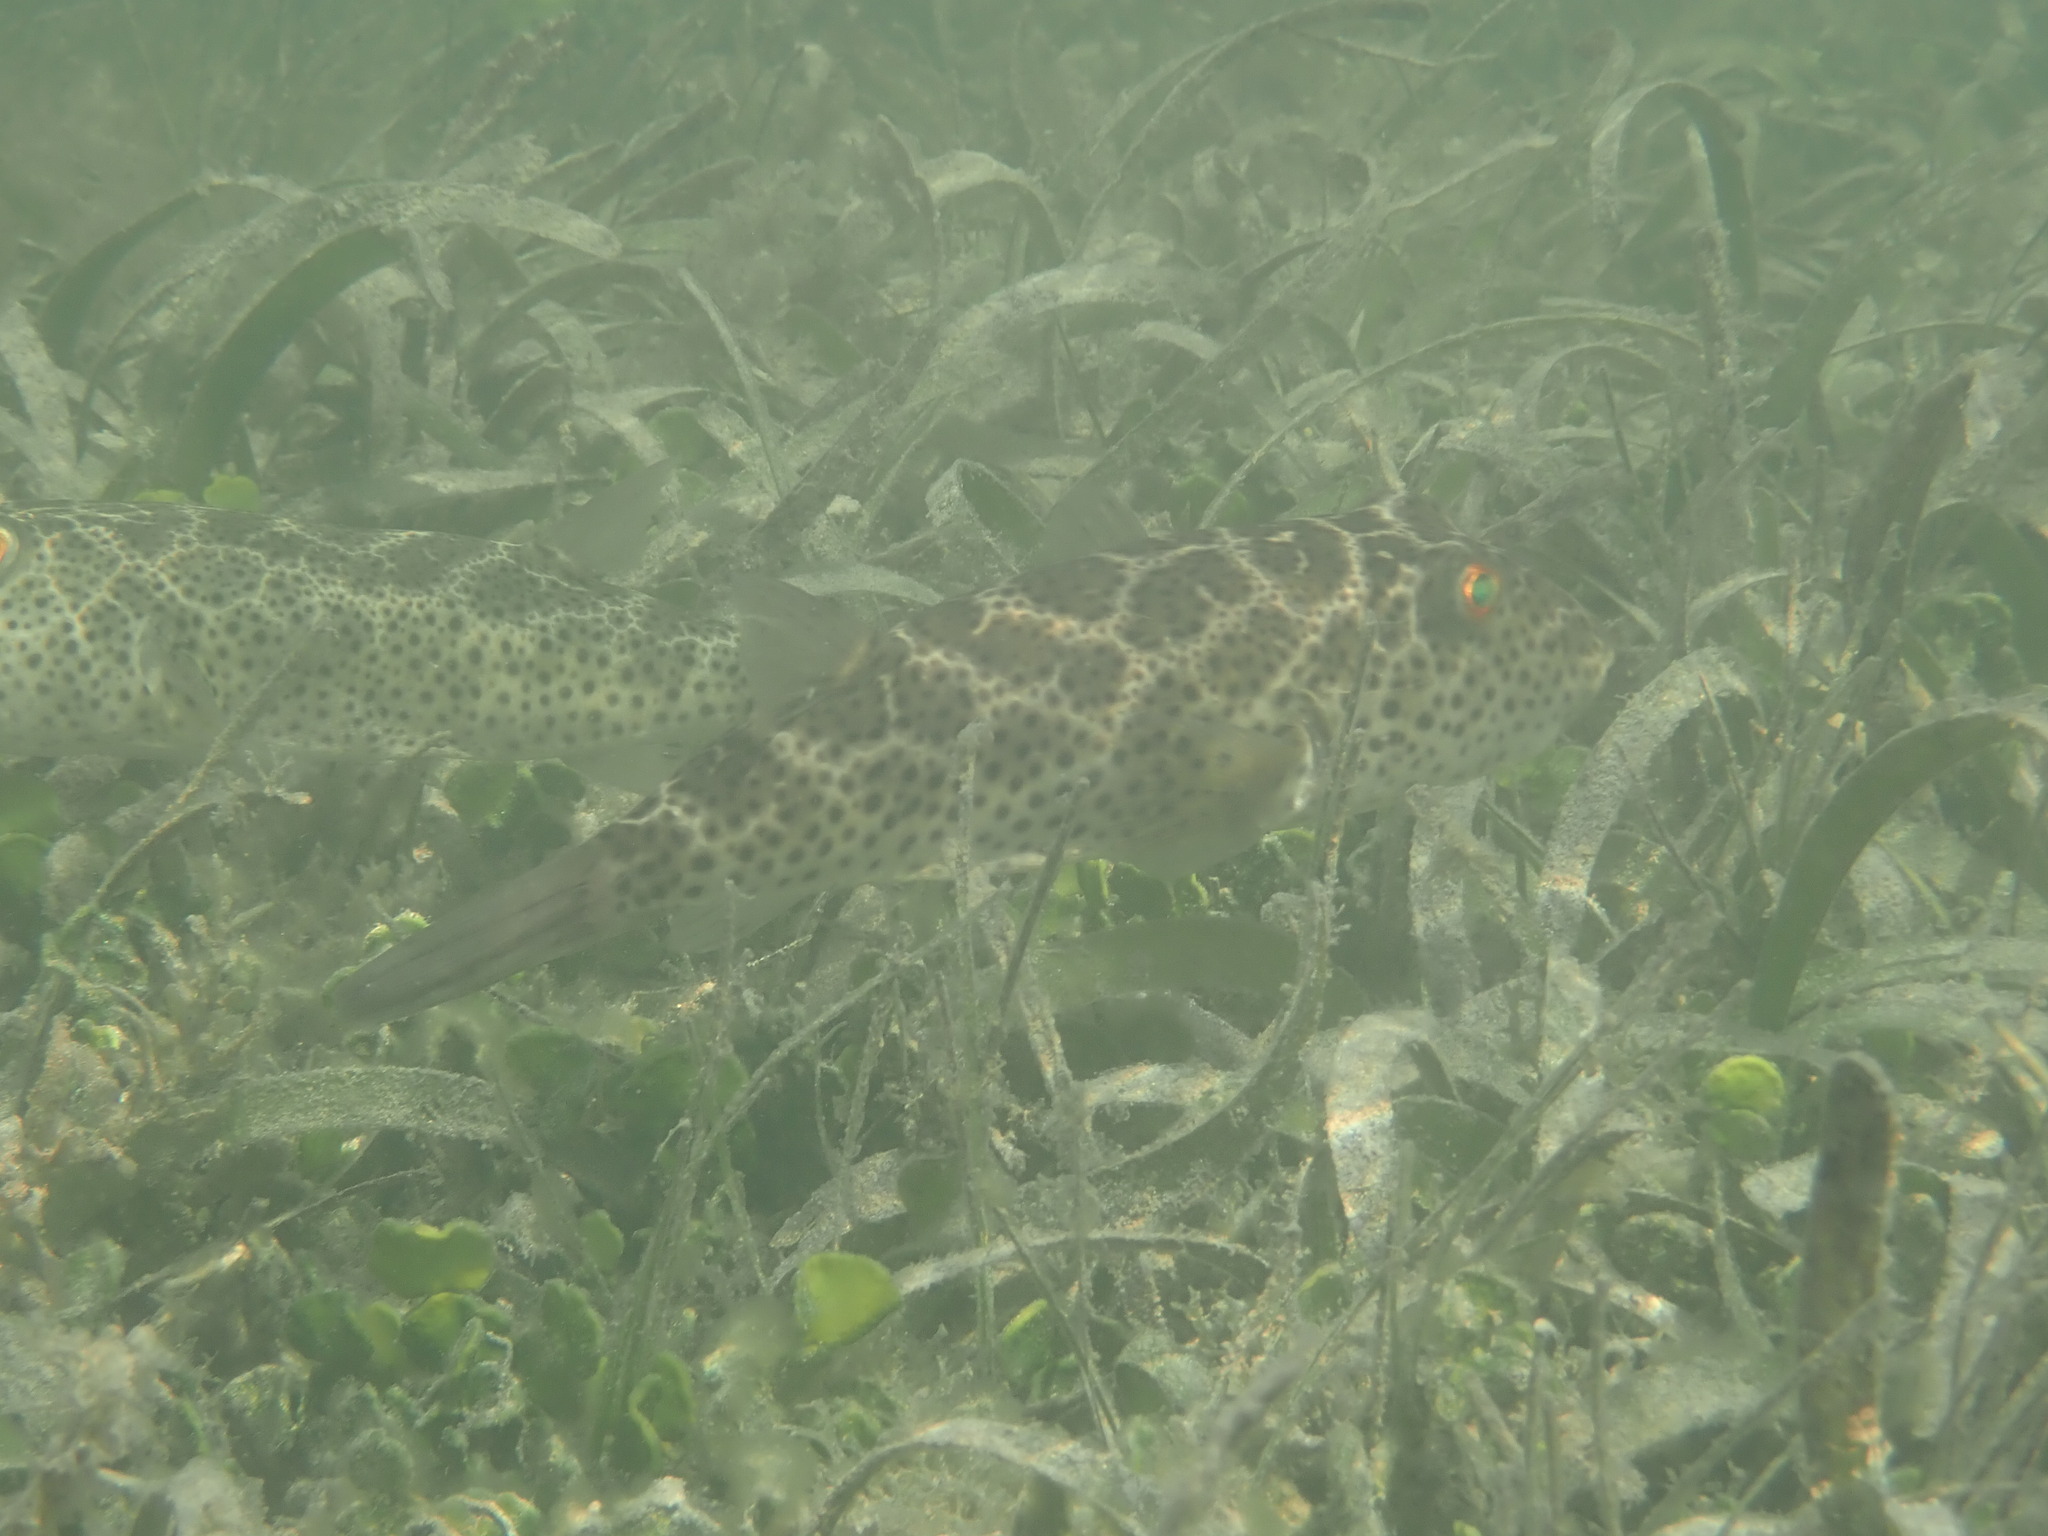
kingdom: Animalia
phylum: Chordata
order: Tetraodontiformes
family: Tetraodontidae
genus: Sphoeroides
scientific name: Sphoeroides testudineus
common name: Checkered puffer
